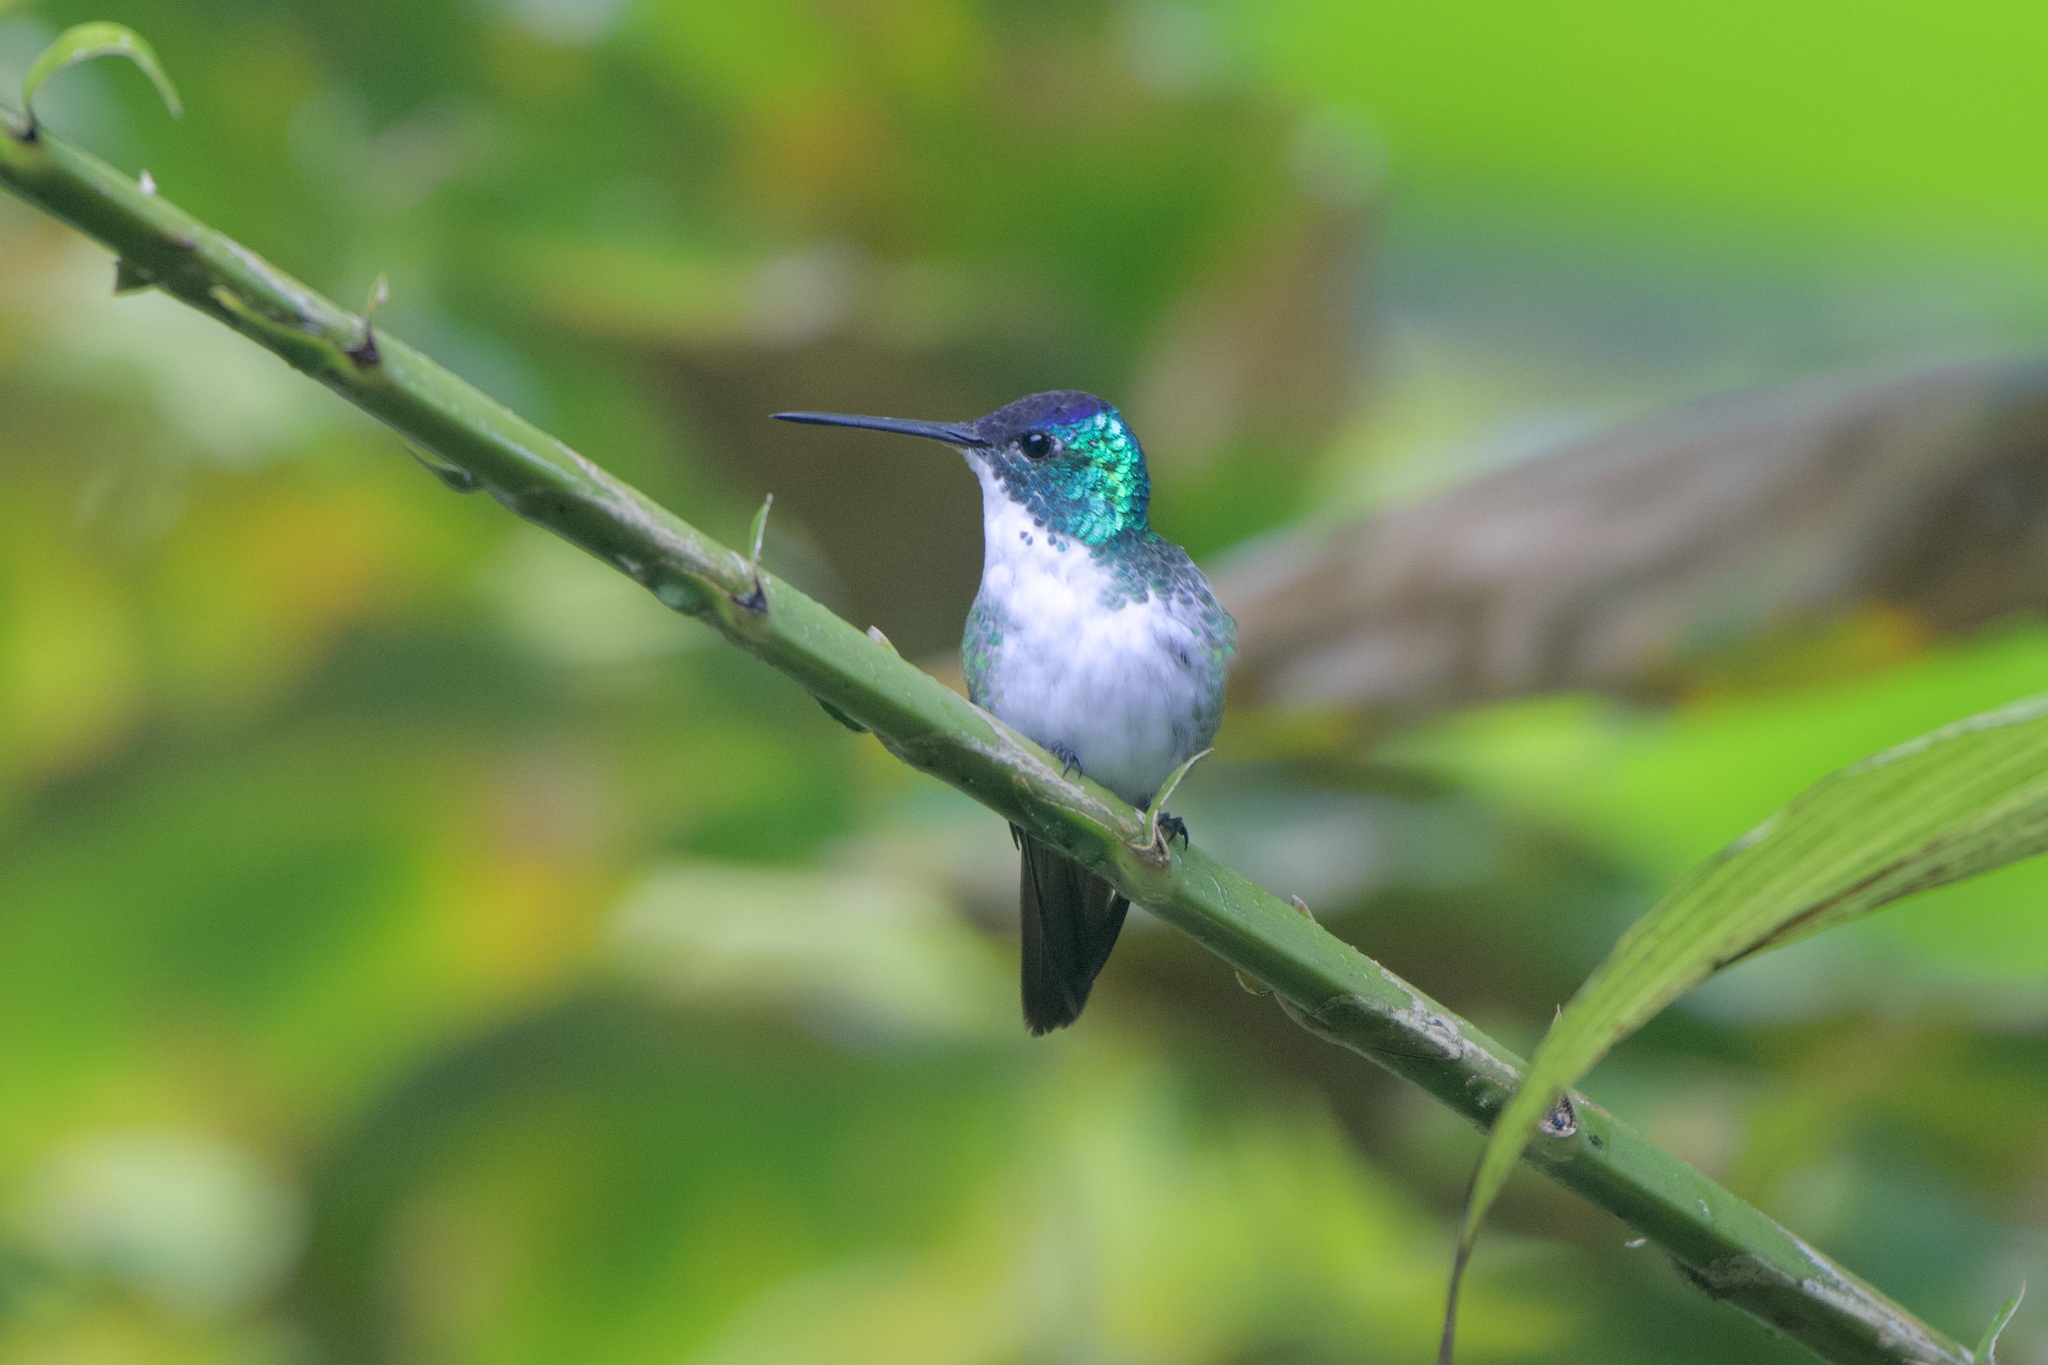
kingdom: Animalia
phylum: Chordata
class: Aves
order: Apodiformes
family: Trochilidae
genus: Uranomitra
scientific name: Uranomitra franciae
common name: Andean emerald
